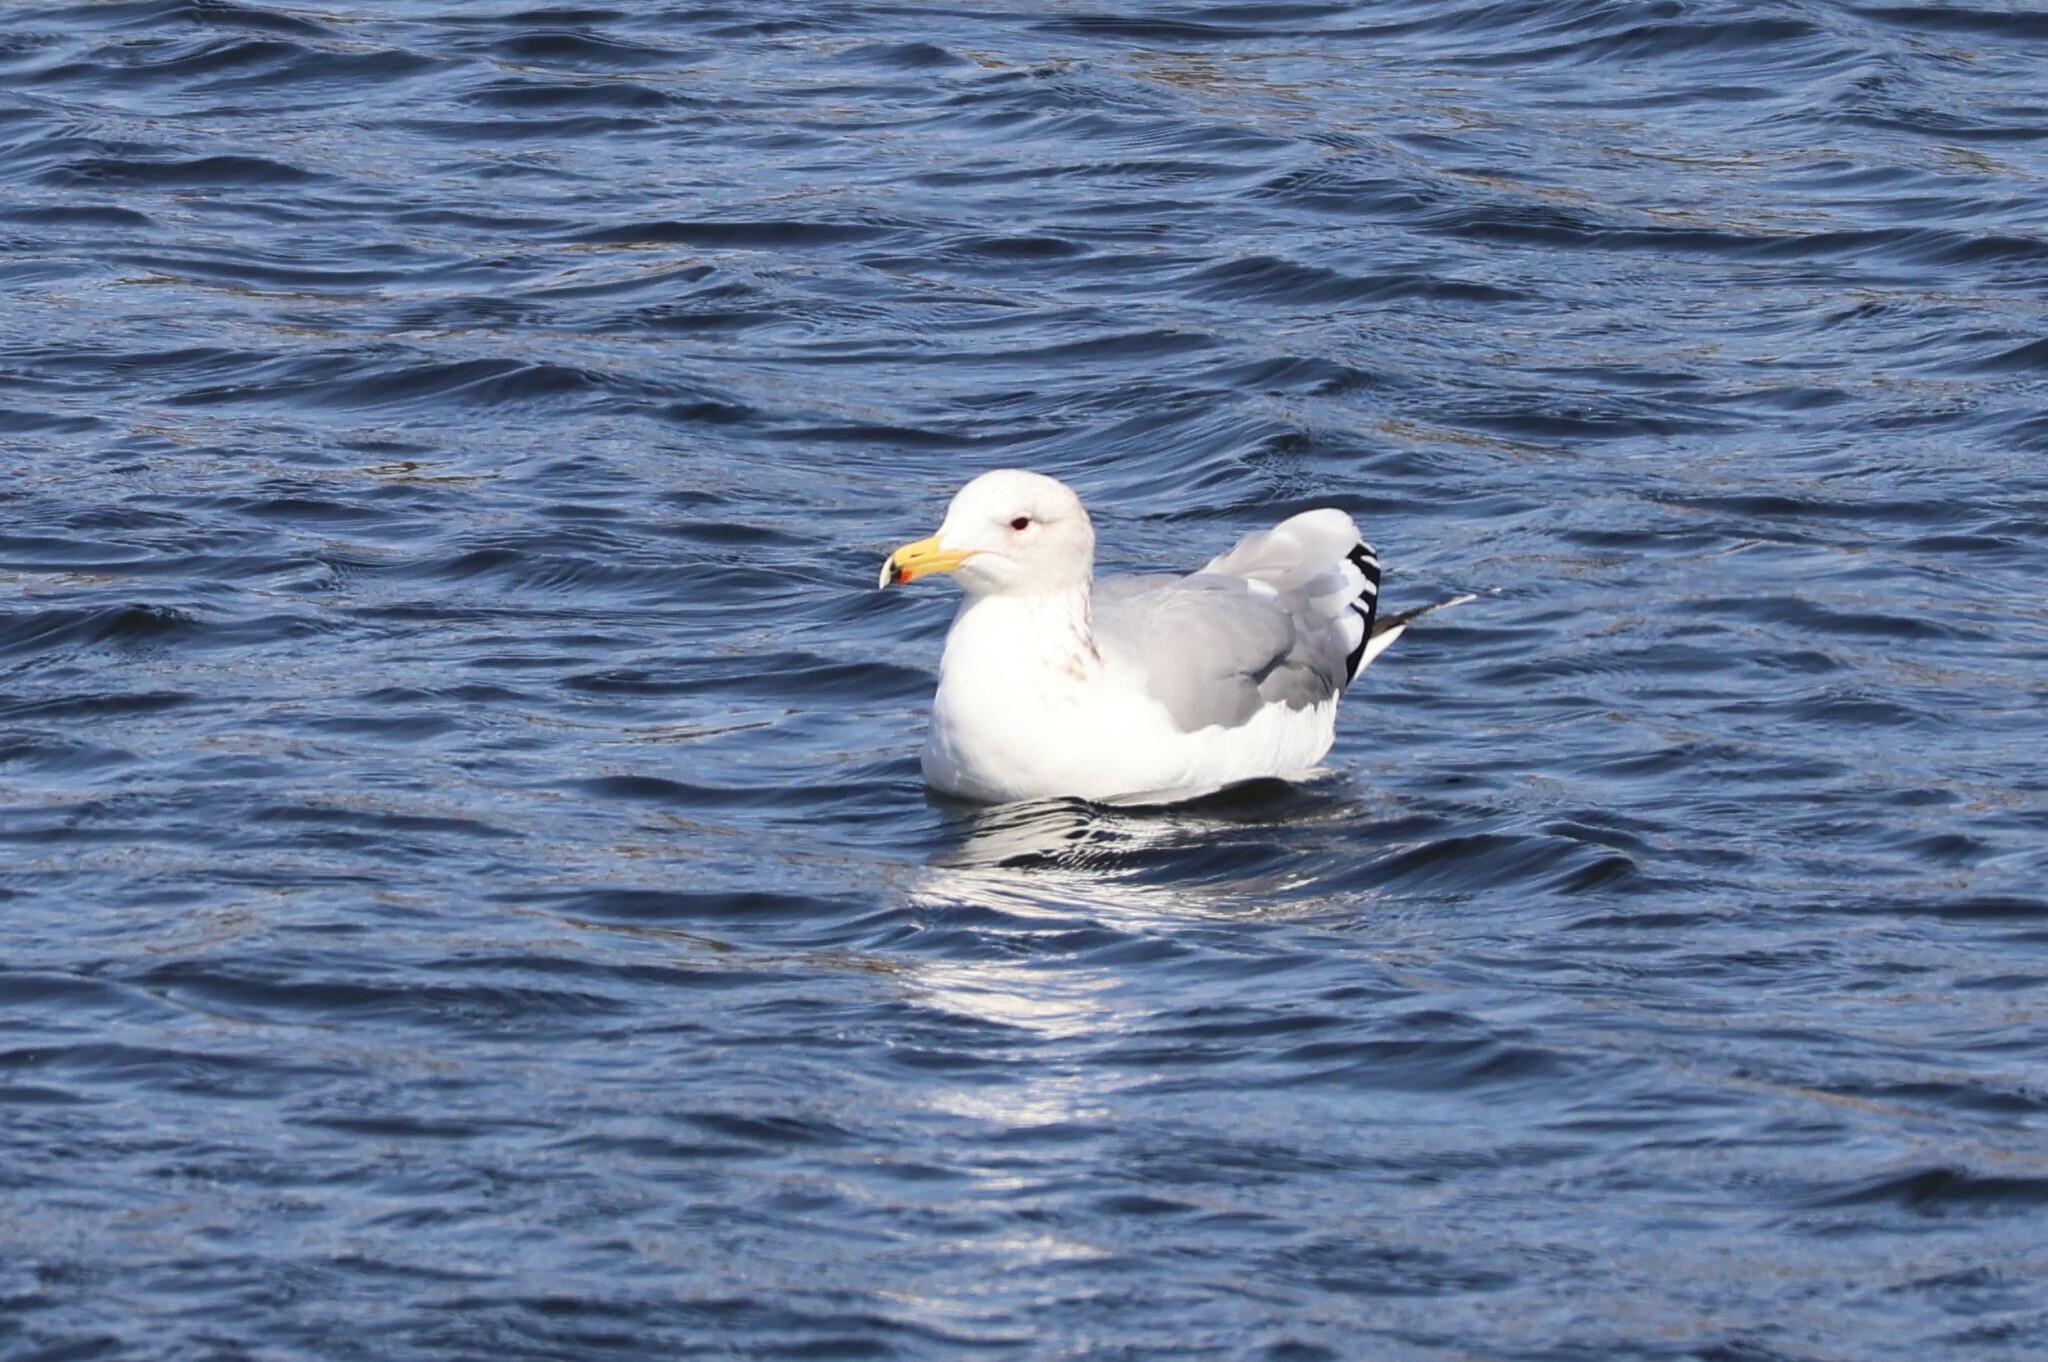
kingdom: Animalia
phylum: Chordata
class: Aves
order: Charadriiformes
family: Laridae
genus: Larus
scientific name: Larus californicus
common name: California gull
